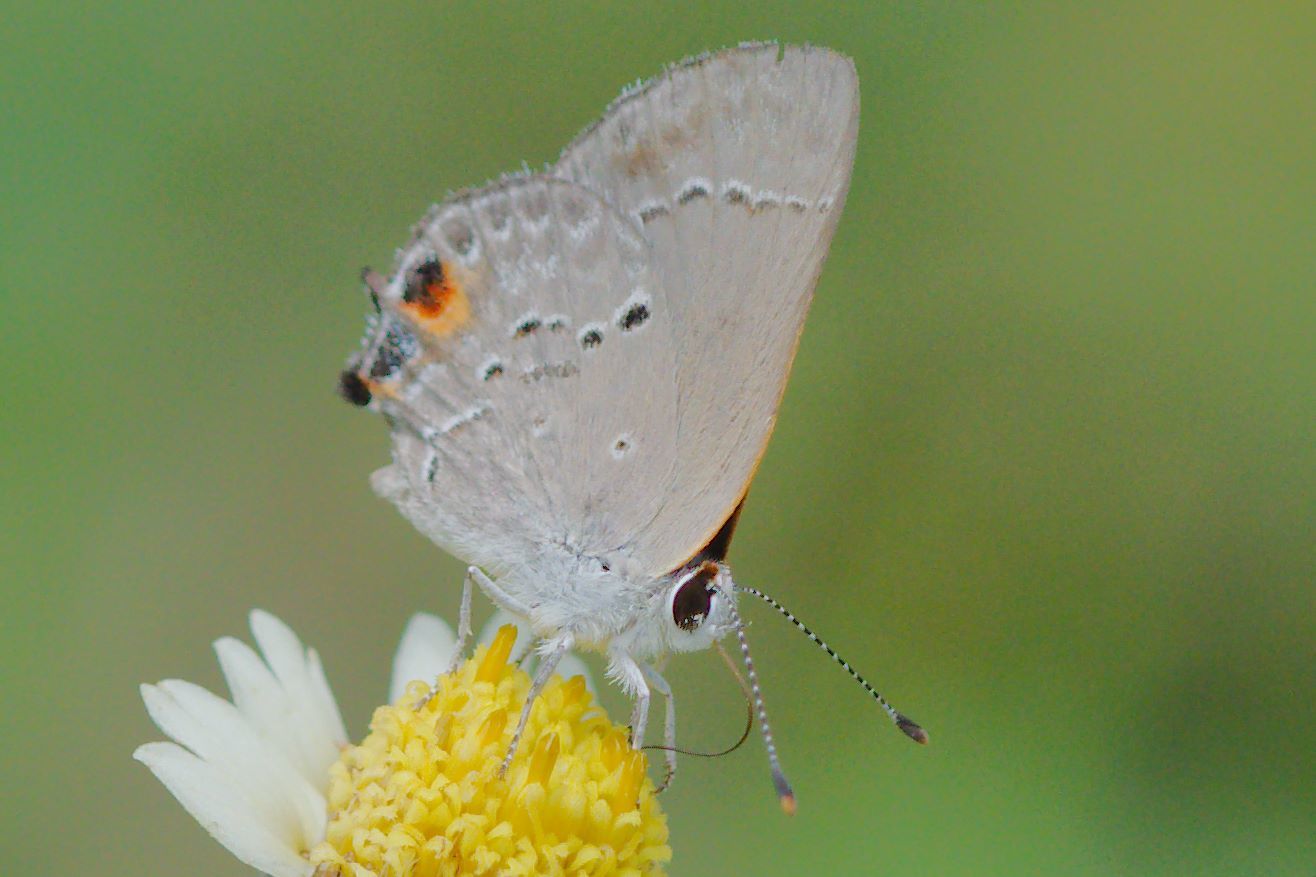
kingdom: Animalia
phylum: Arthropoda
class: Insecta
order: Lepidoptera
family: Lycaenidae
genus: Callicista
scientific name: Callicista columella
